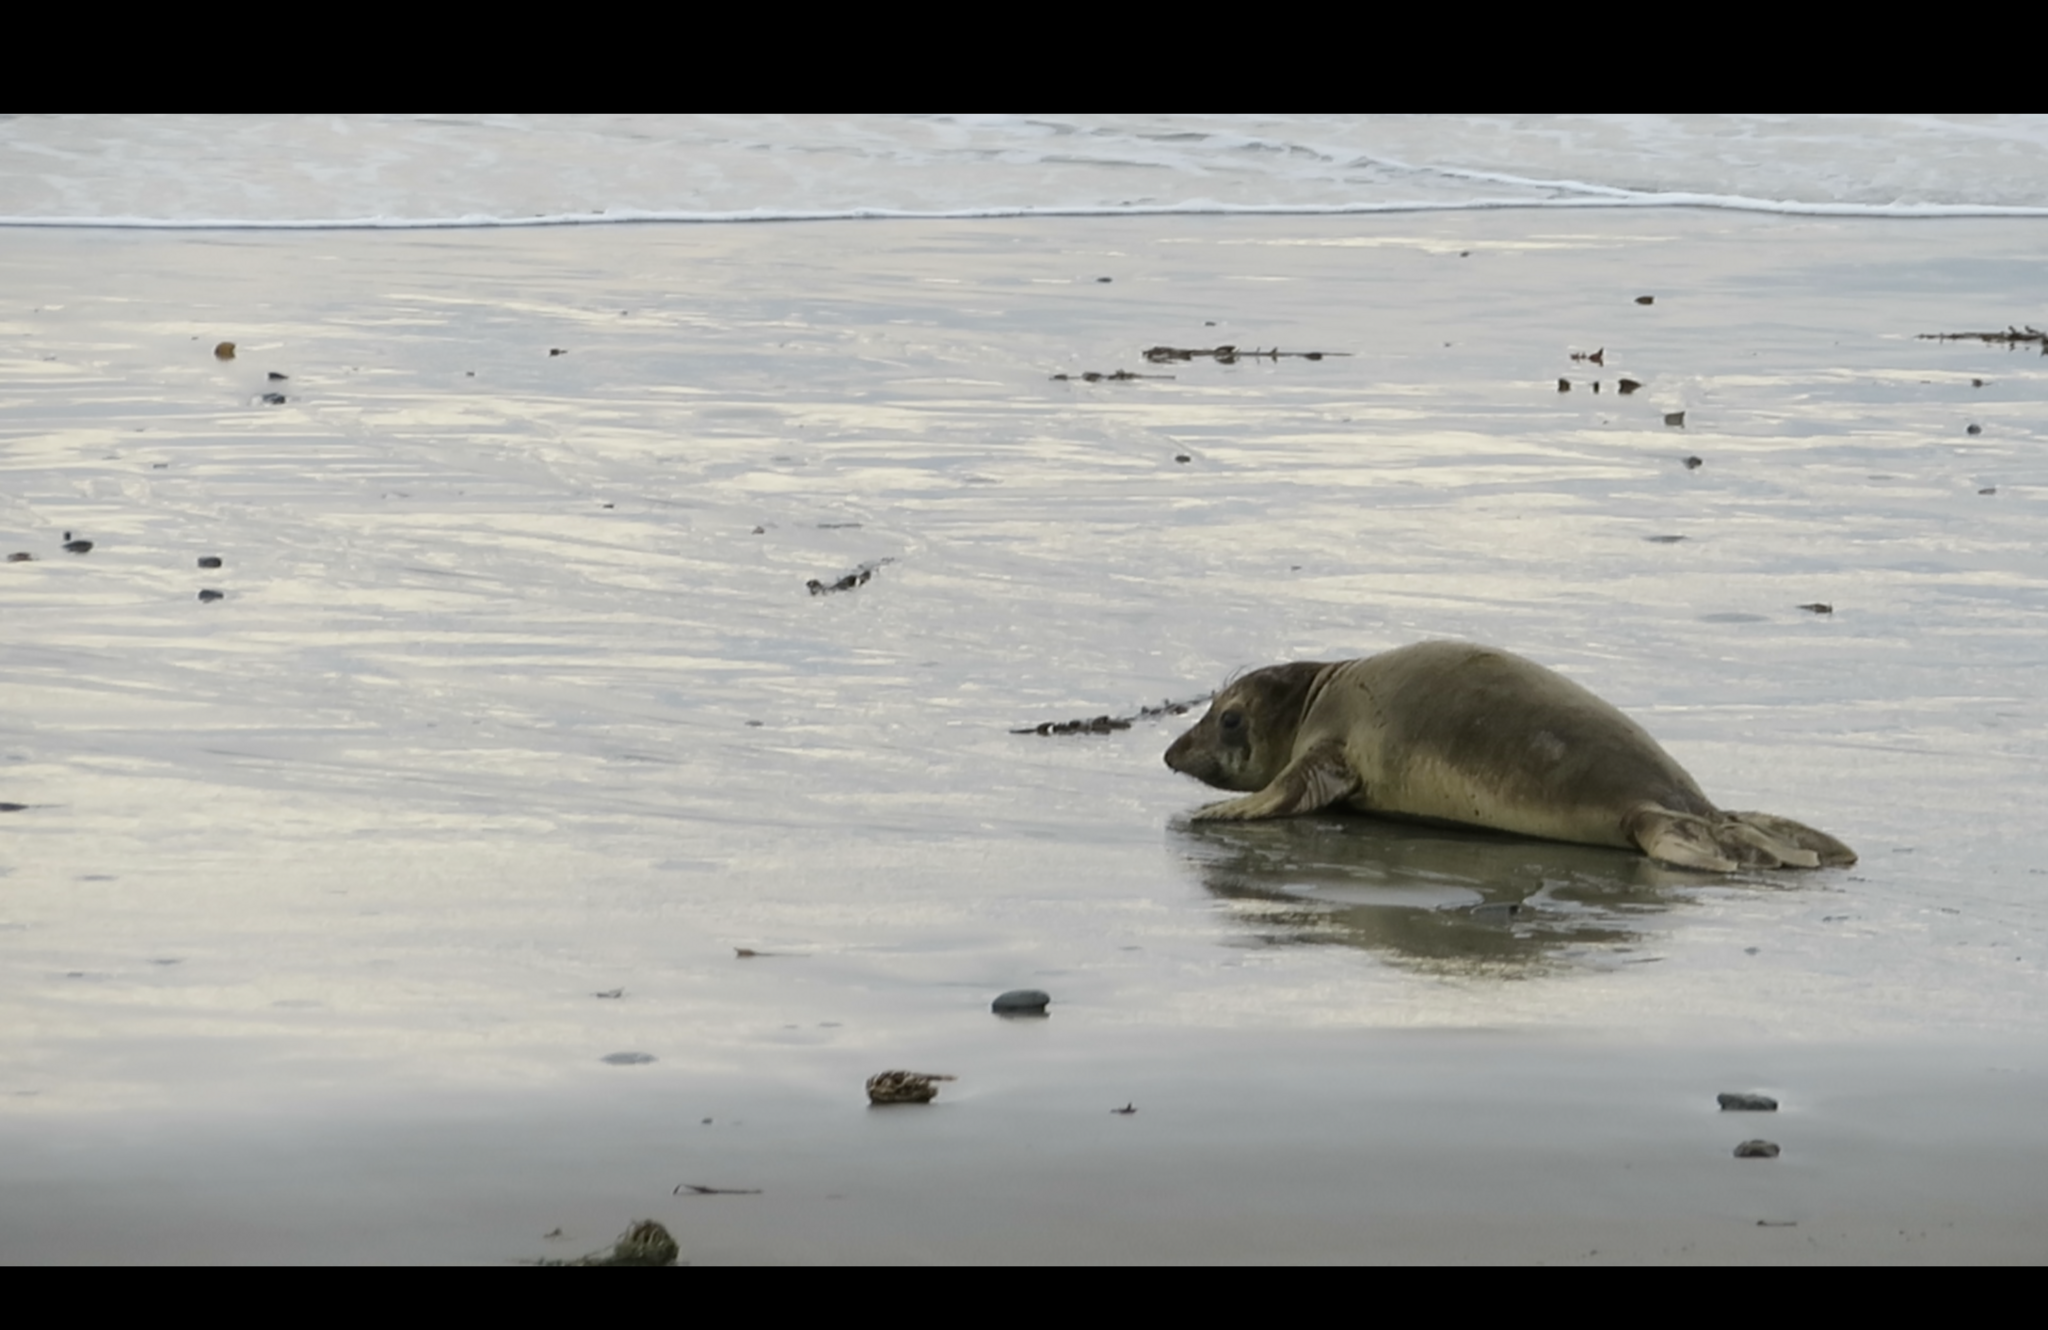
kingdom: Animalia
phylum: Chordata
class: Mammalia
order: Carnivora
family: Phocidae
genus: Mirounga
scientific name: Mirounga angustirostris
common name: Northern elephant seal
